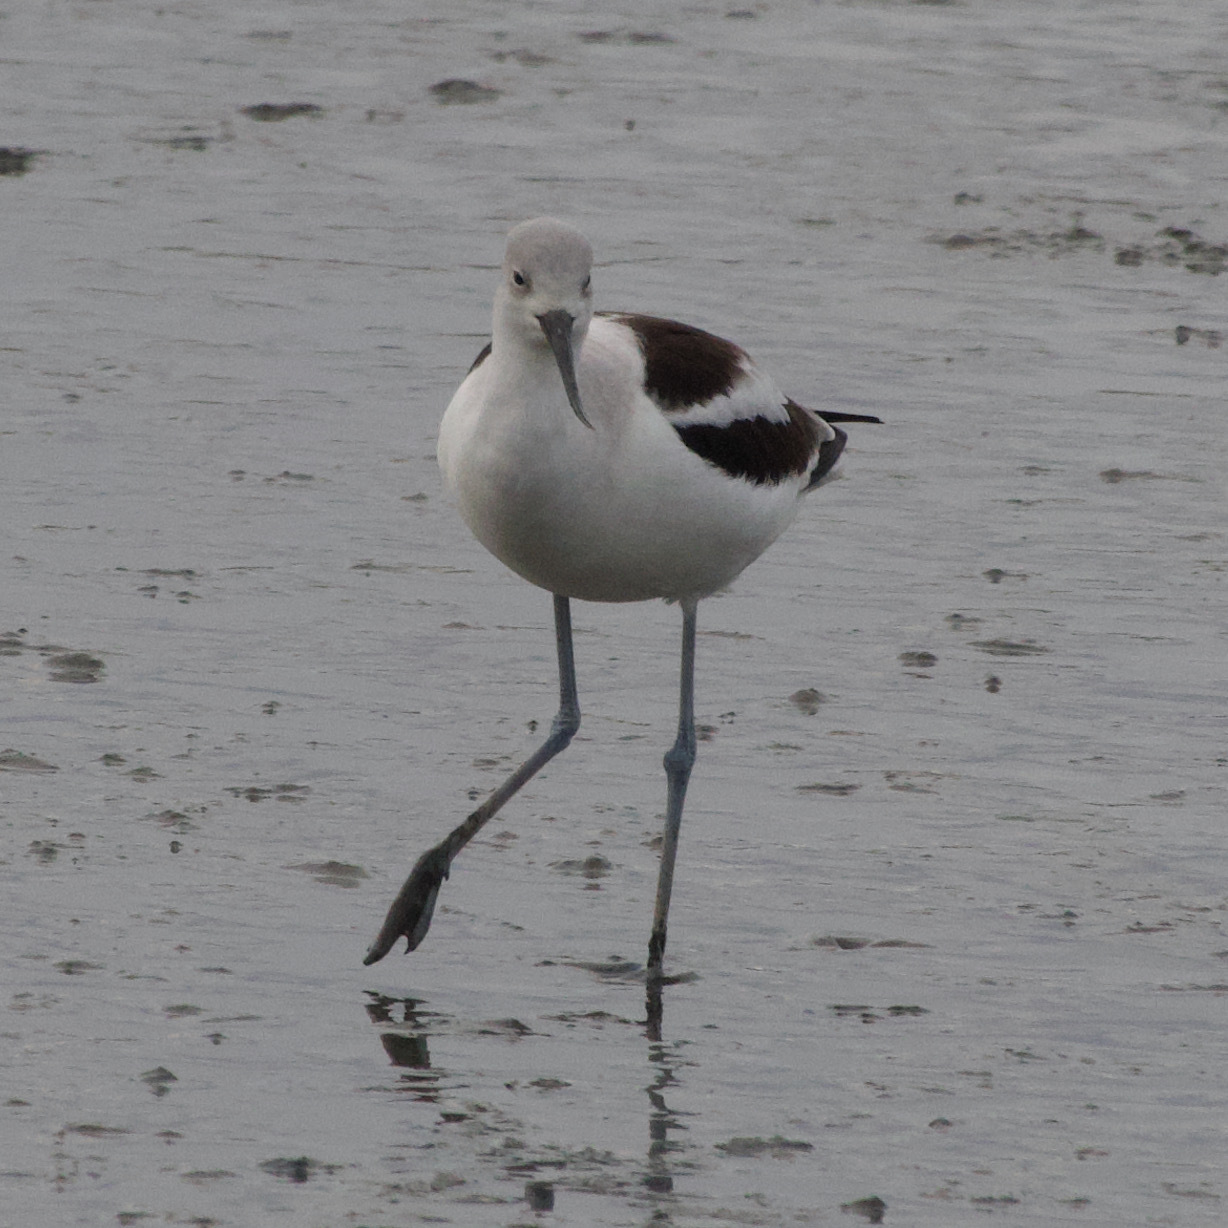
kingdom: Animalia
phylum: Chordata
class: Aves
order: Charadriiformes
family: Recurvirostridae
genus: Recurvirostra
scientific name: Recurvirostra americana
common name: American avocet
